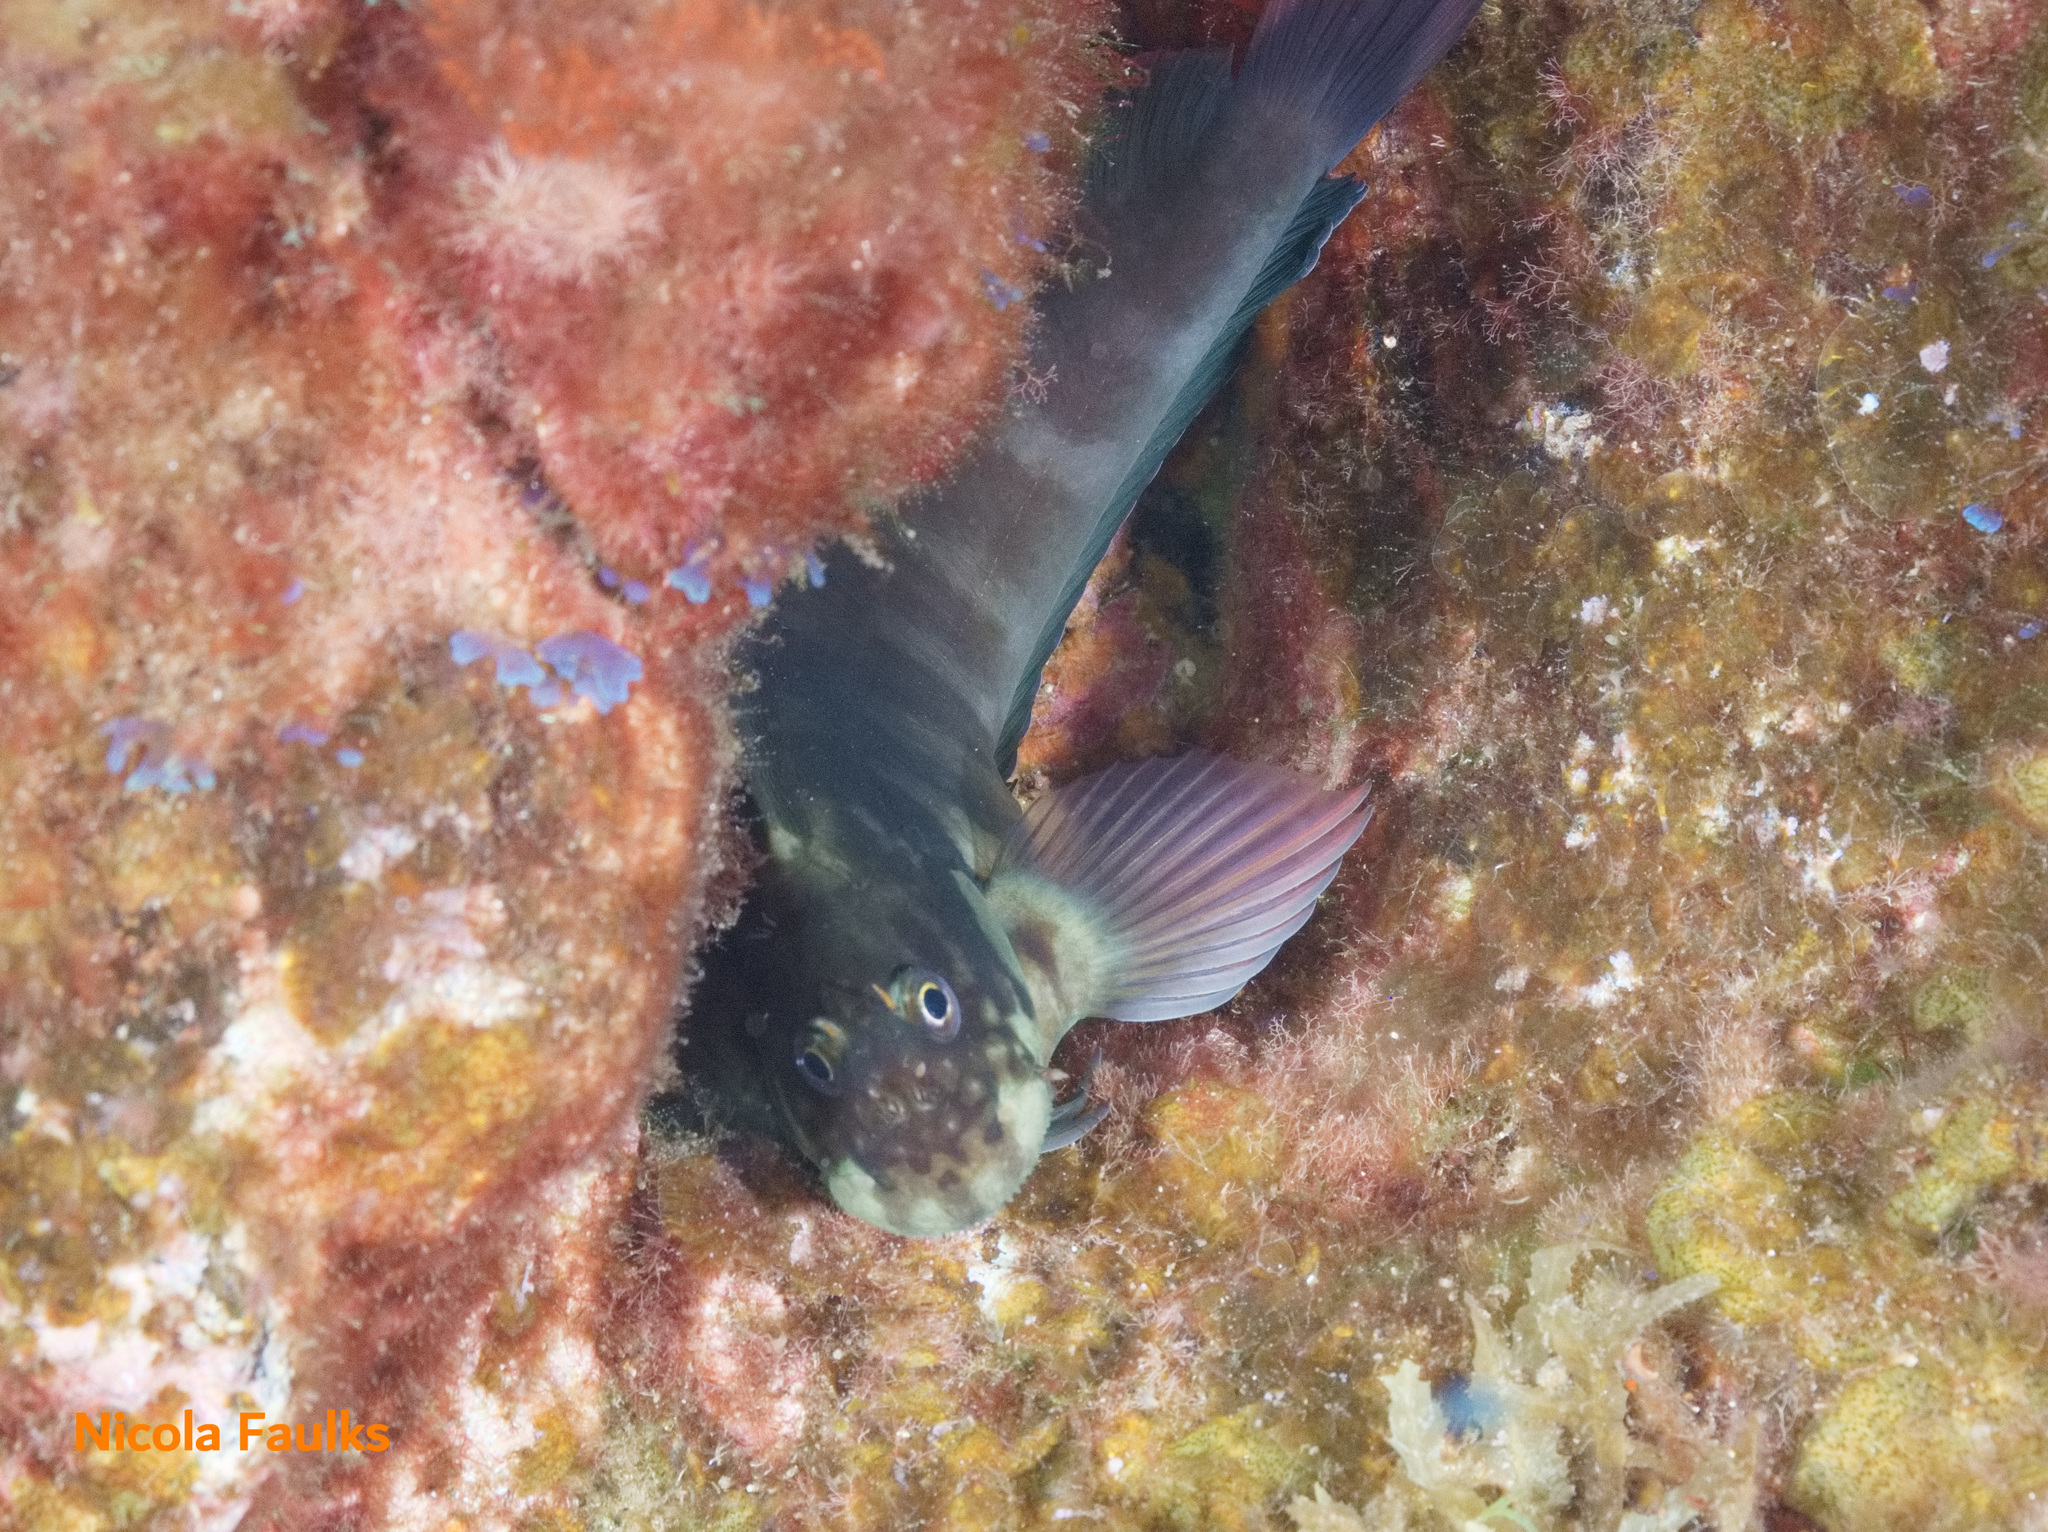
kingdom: Animalia
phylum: Chordata
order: Perciformes
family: Blenniidae
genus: Ophioblennius
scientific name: Ophioblennius atlanticus
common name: Redlip blenny
